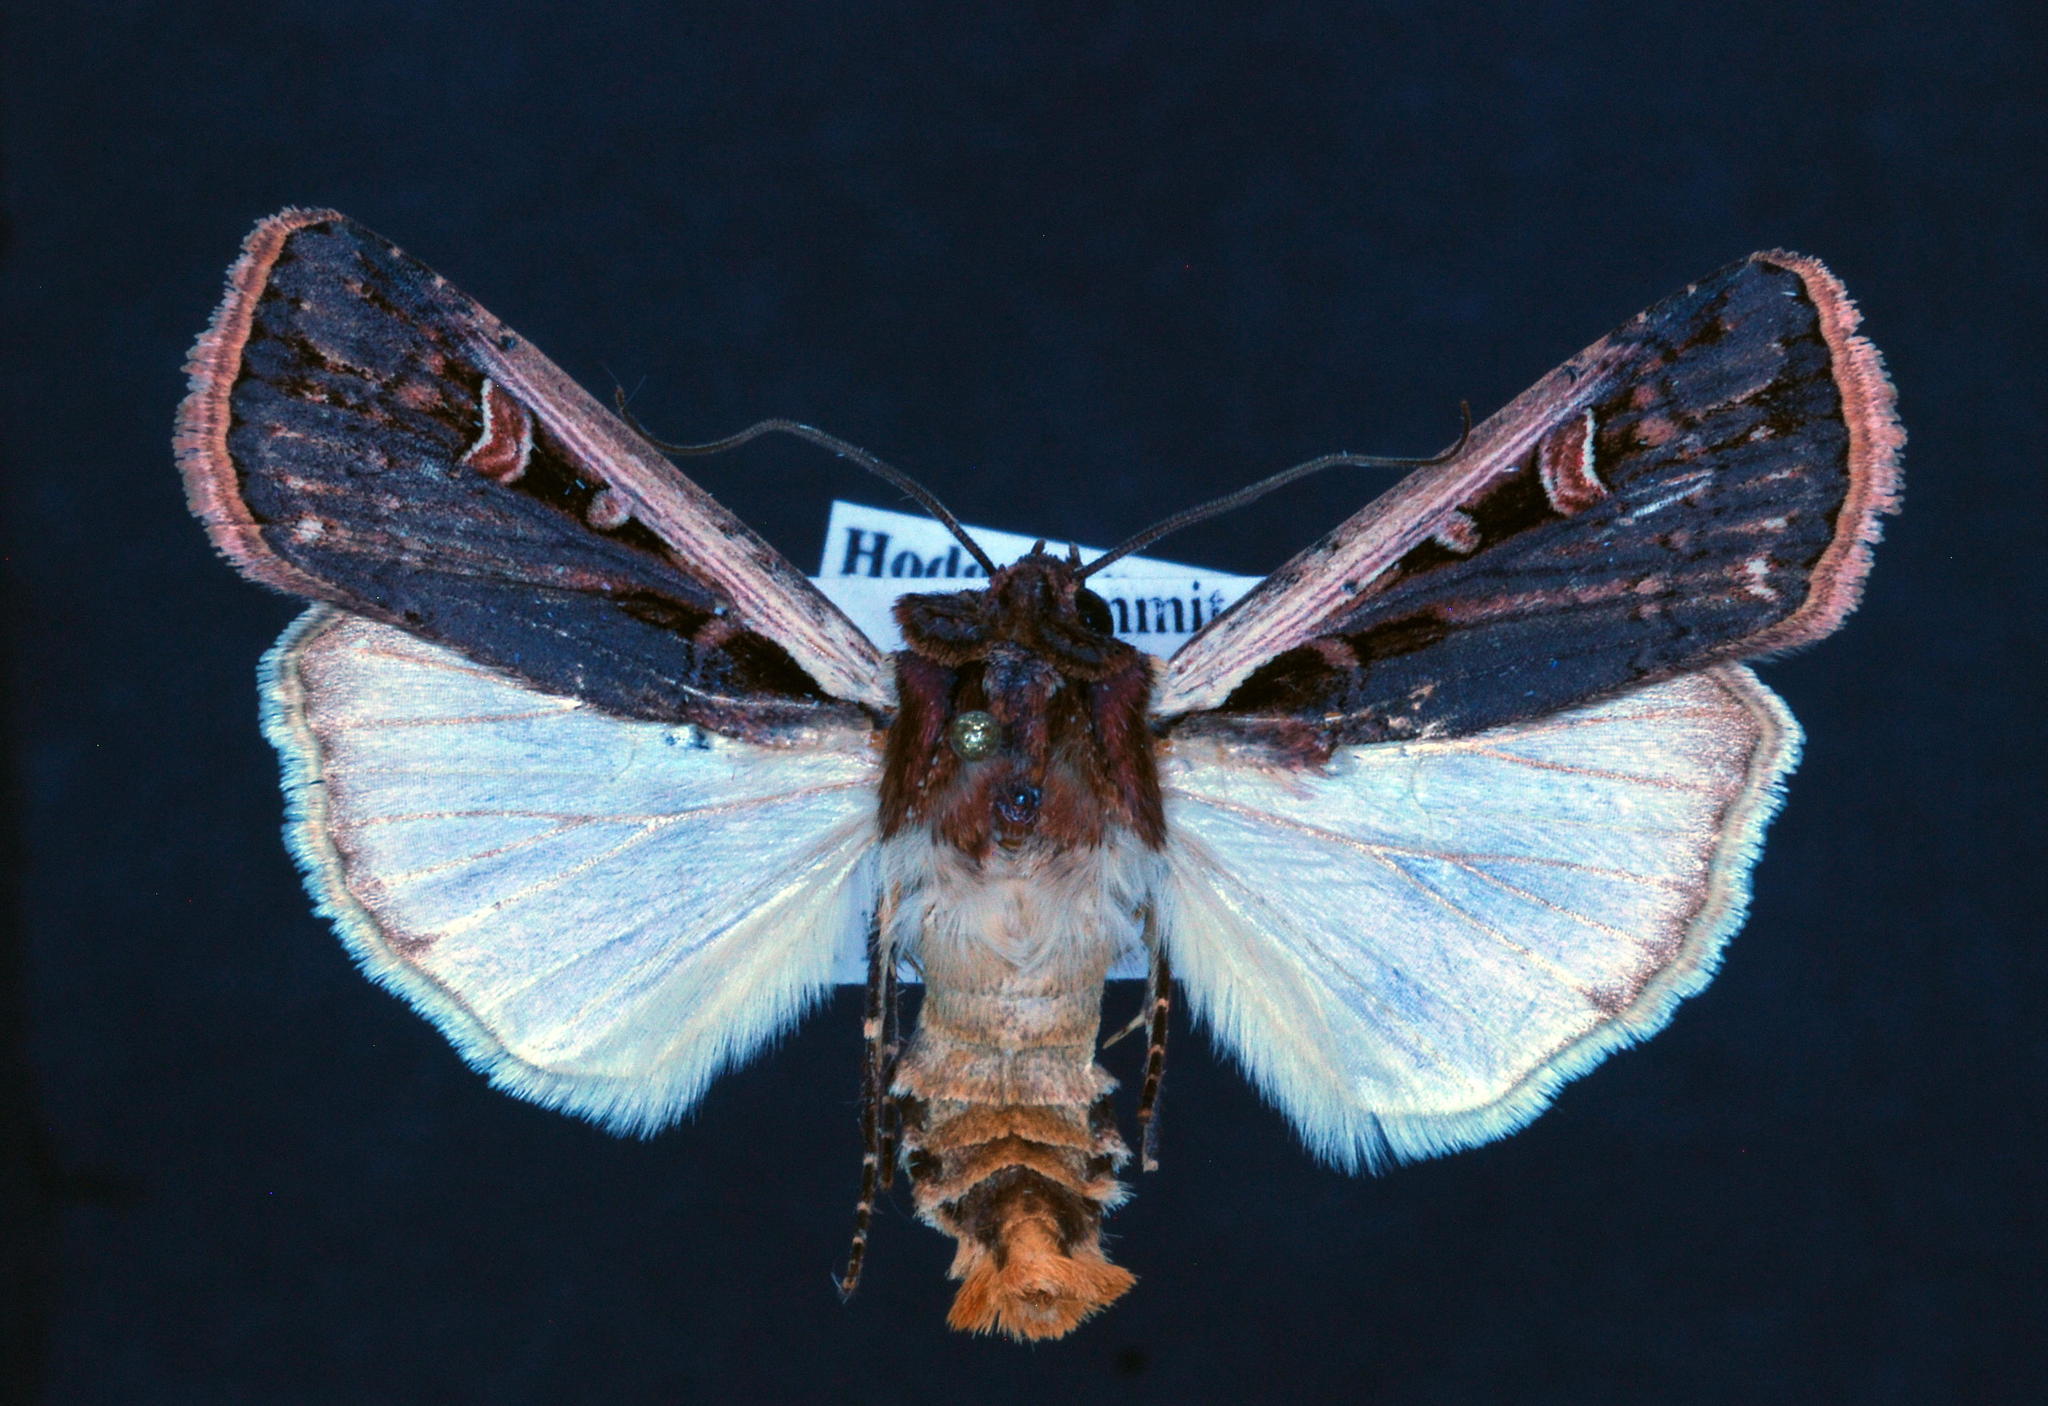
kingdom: Animalia
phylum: Arthropoda
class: Insecta
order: Lepidoptera
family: Noctuidae
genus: Striacosta
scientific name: Striacosta albicosta
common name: Western bean cutworm moth
